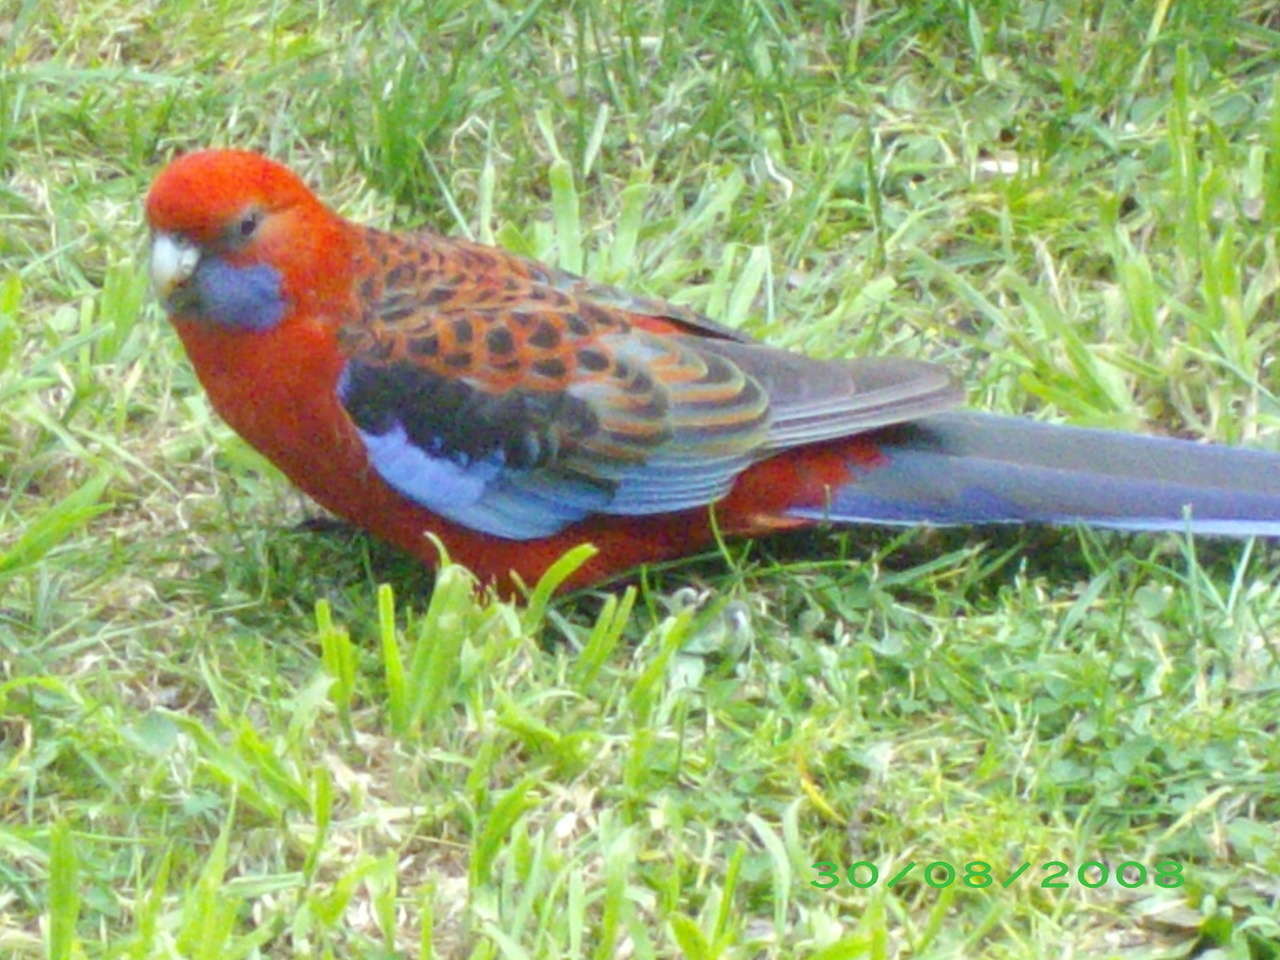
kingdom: Animalia
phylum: Chordata
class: Aves
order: Psittaciformes
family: Psittacidae
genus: Platycercus
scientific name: Platycercus elegans
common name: Crimson rosella
